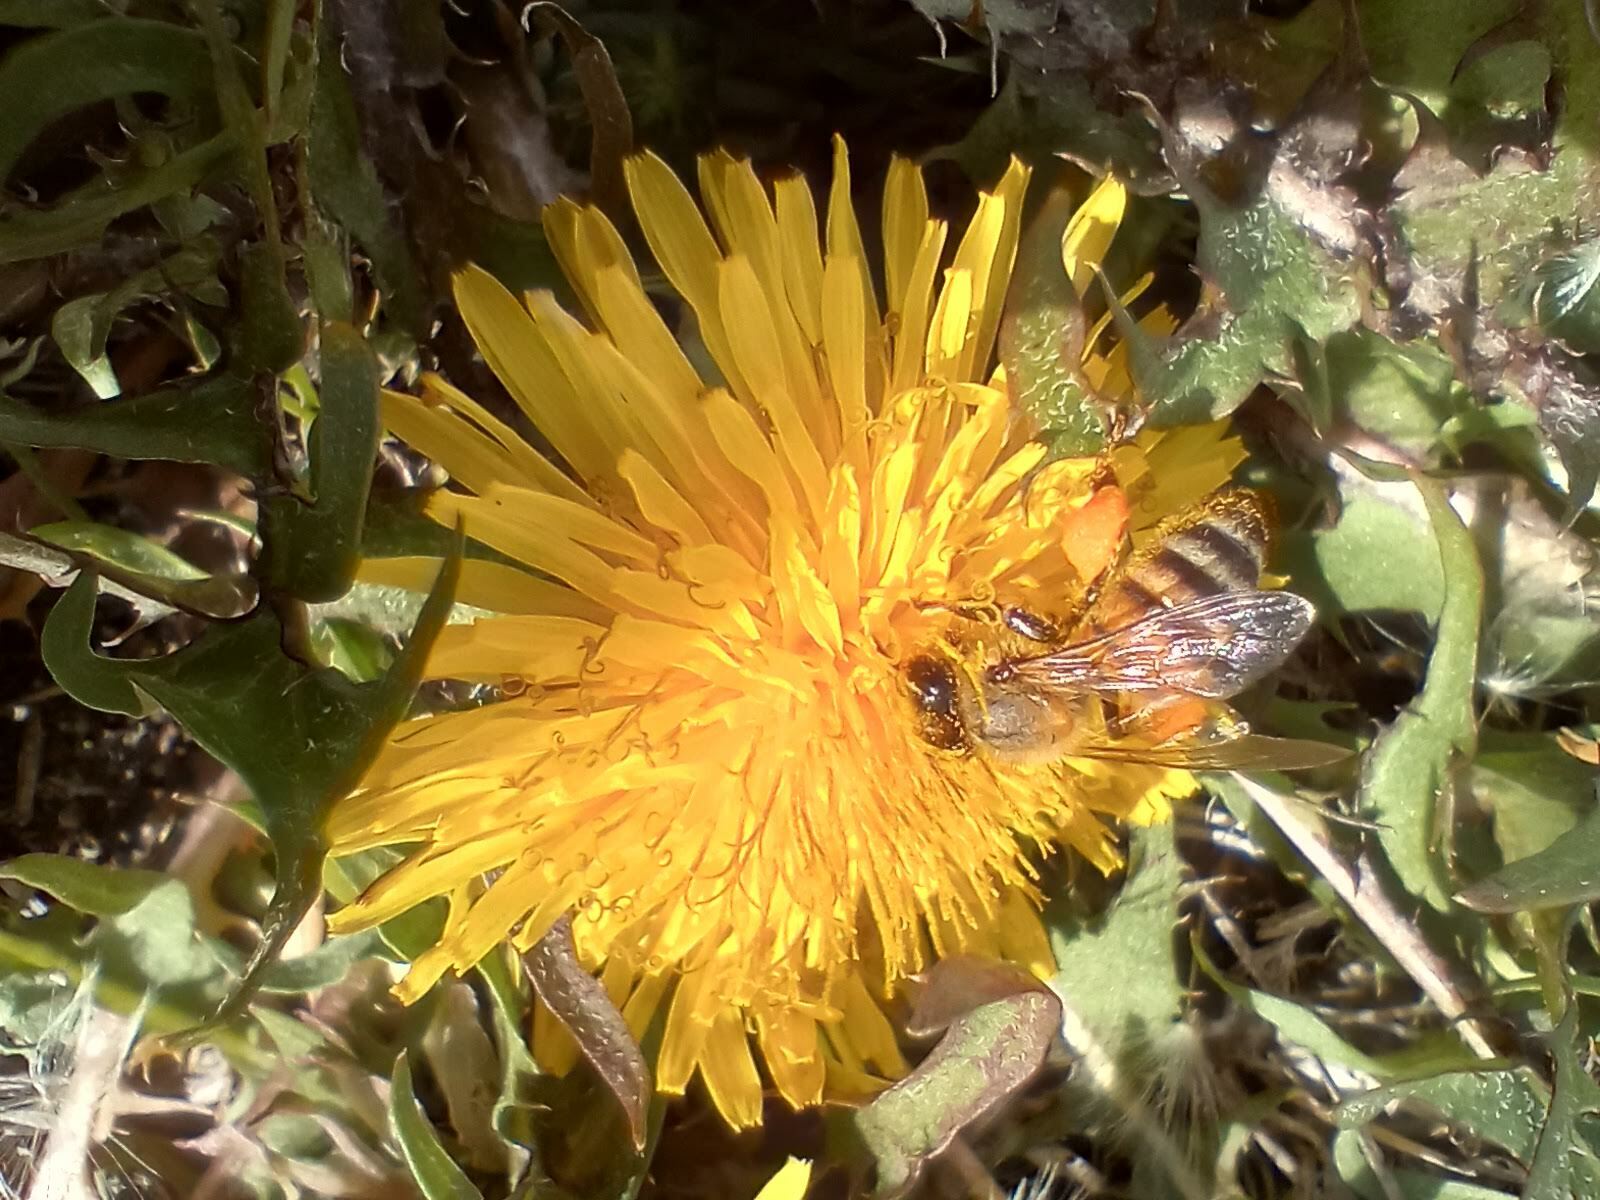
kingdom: Animalia
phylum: Arthropoda
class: Insecta
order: Hymenoptera
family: Apidae
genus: Apis
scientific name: Apis mellifera
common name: Honey bee
